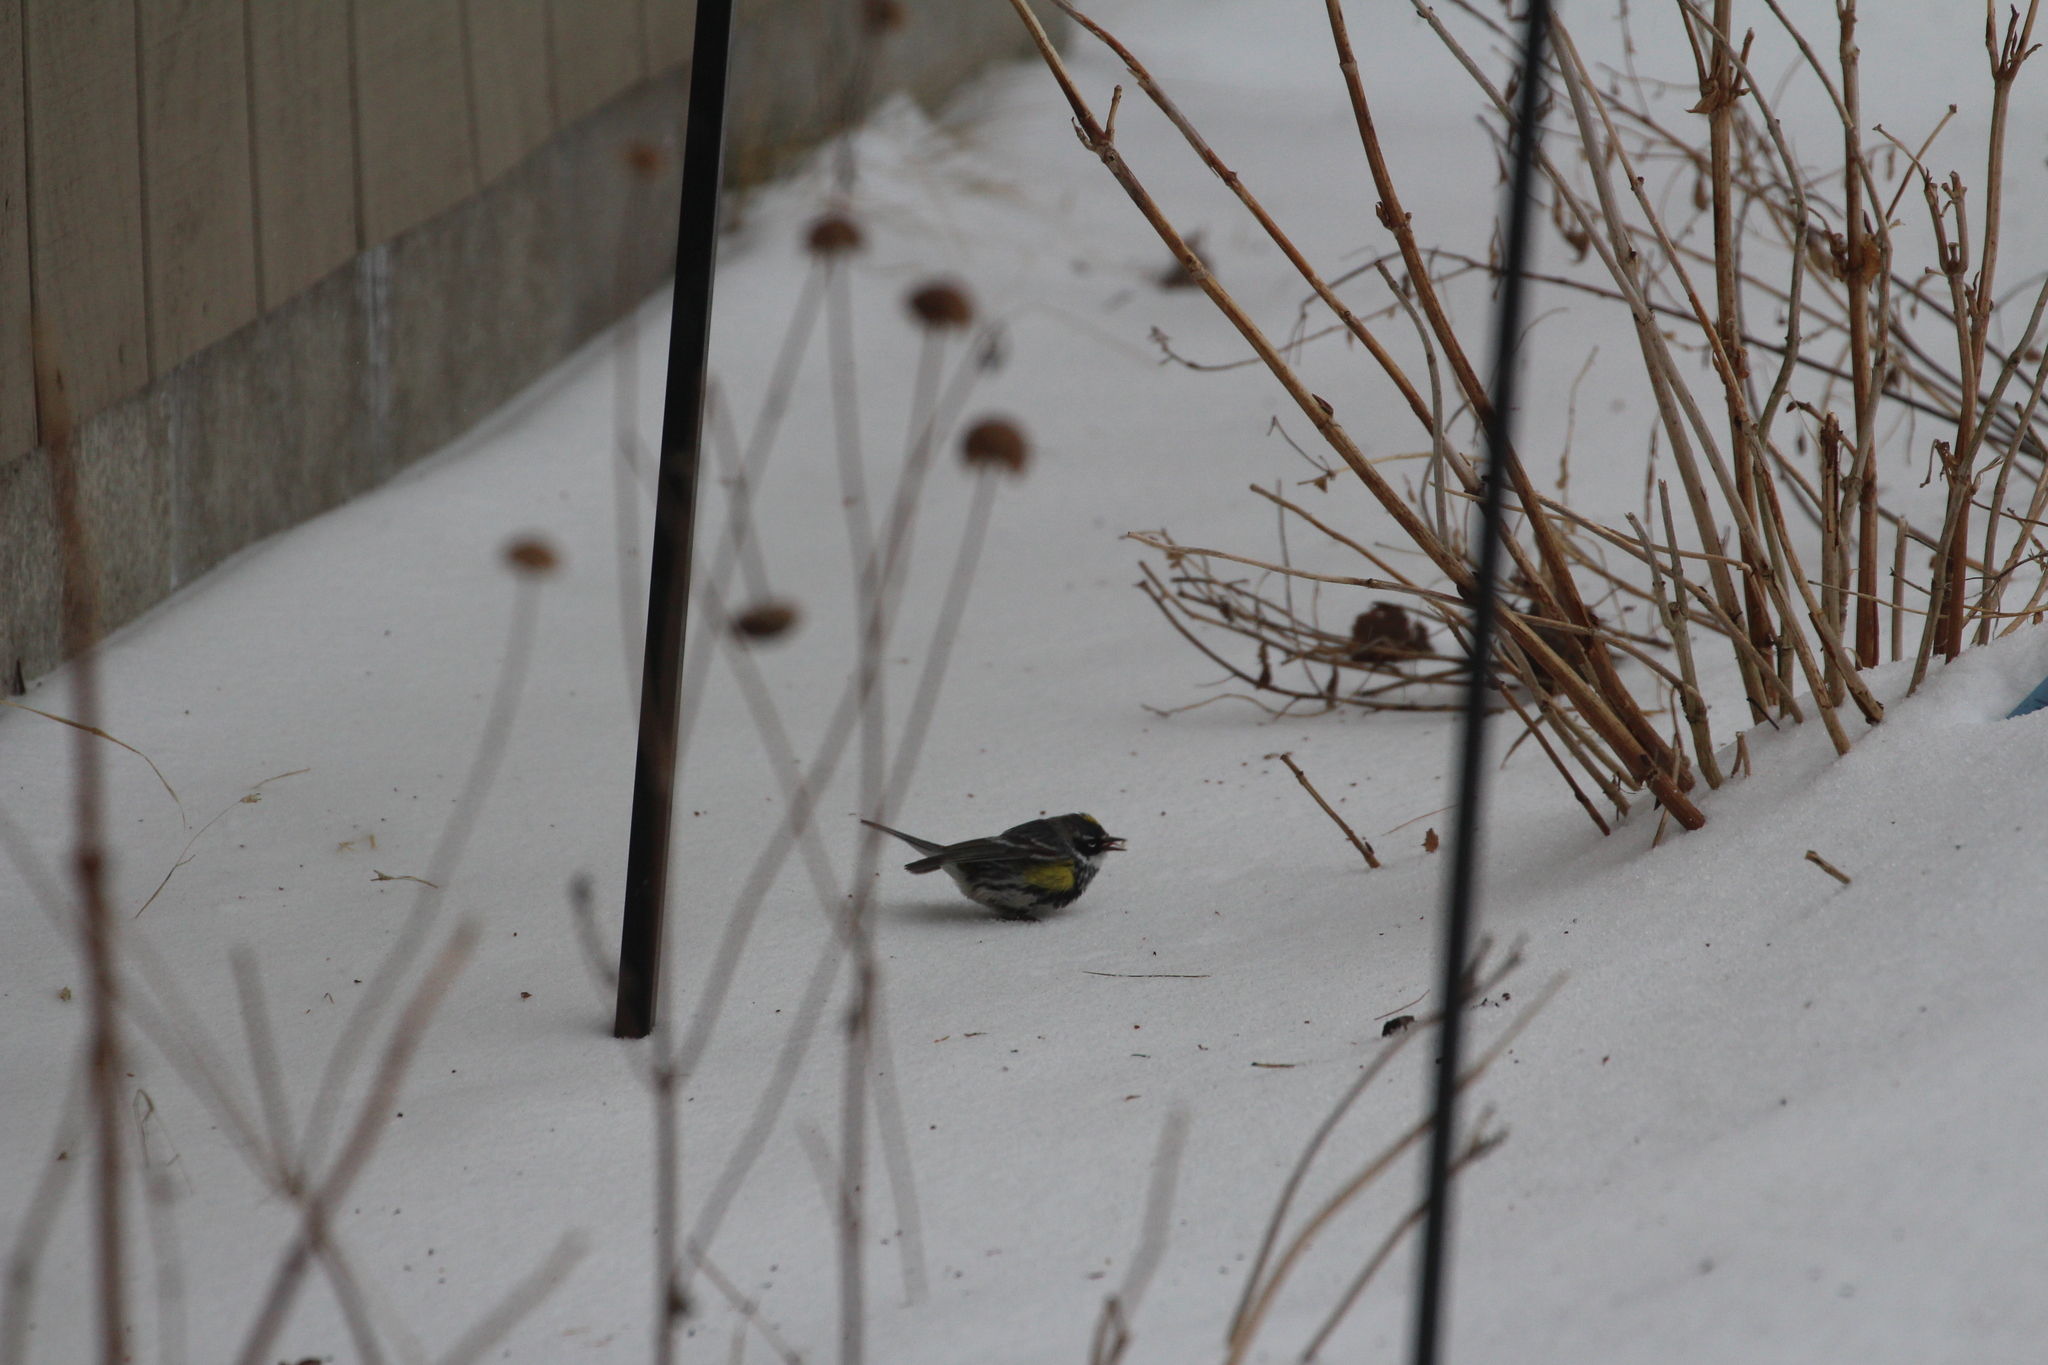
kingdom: Animalia
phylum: Chordata
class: Aves
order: Passeriformes
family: Parulidae
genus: Setophaga
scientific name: Setophaga coronata
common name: Myrtle warbler
